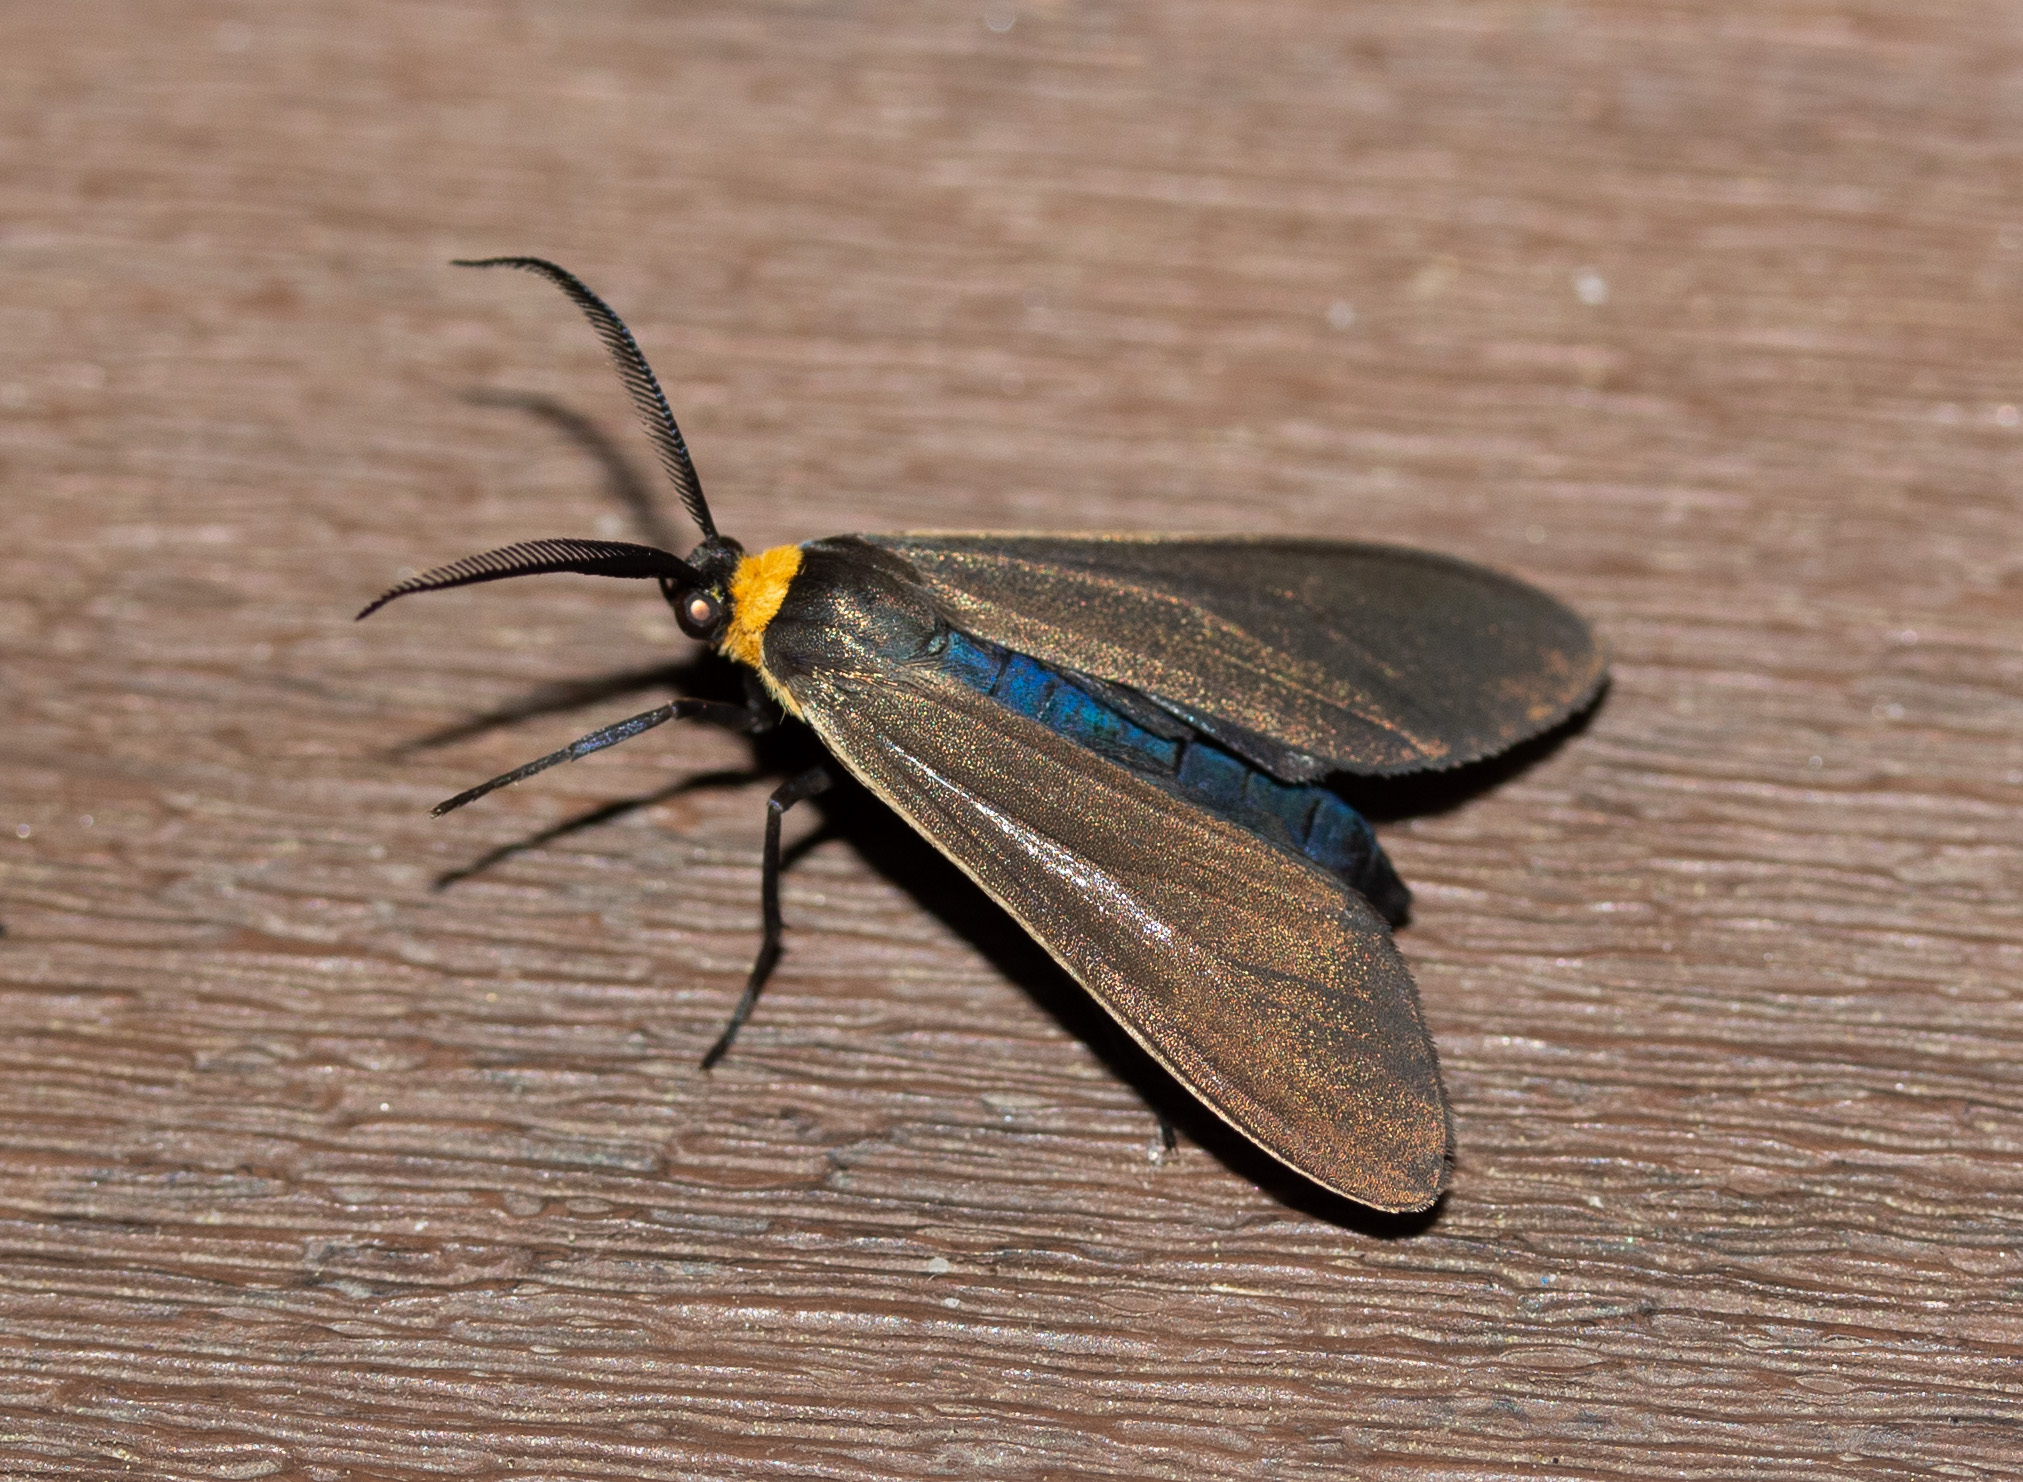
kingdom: Animalia
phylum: Arthropoda
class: Insecta
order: Lepidoptera
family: Erebidae
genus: Cisseps
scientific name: Cisseps fulvicollis
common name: Yellow-collared scape moth
